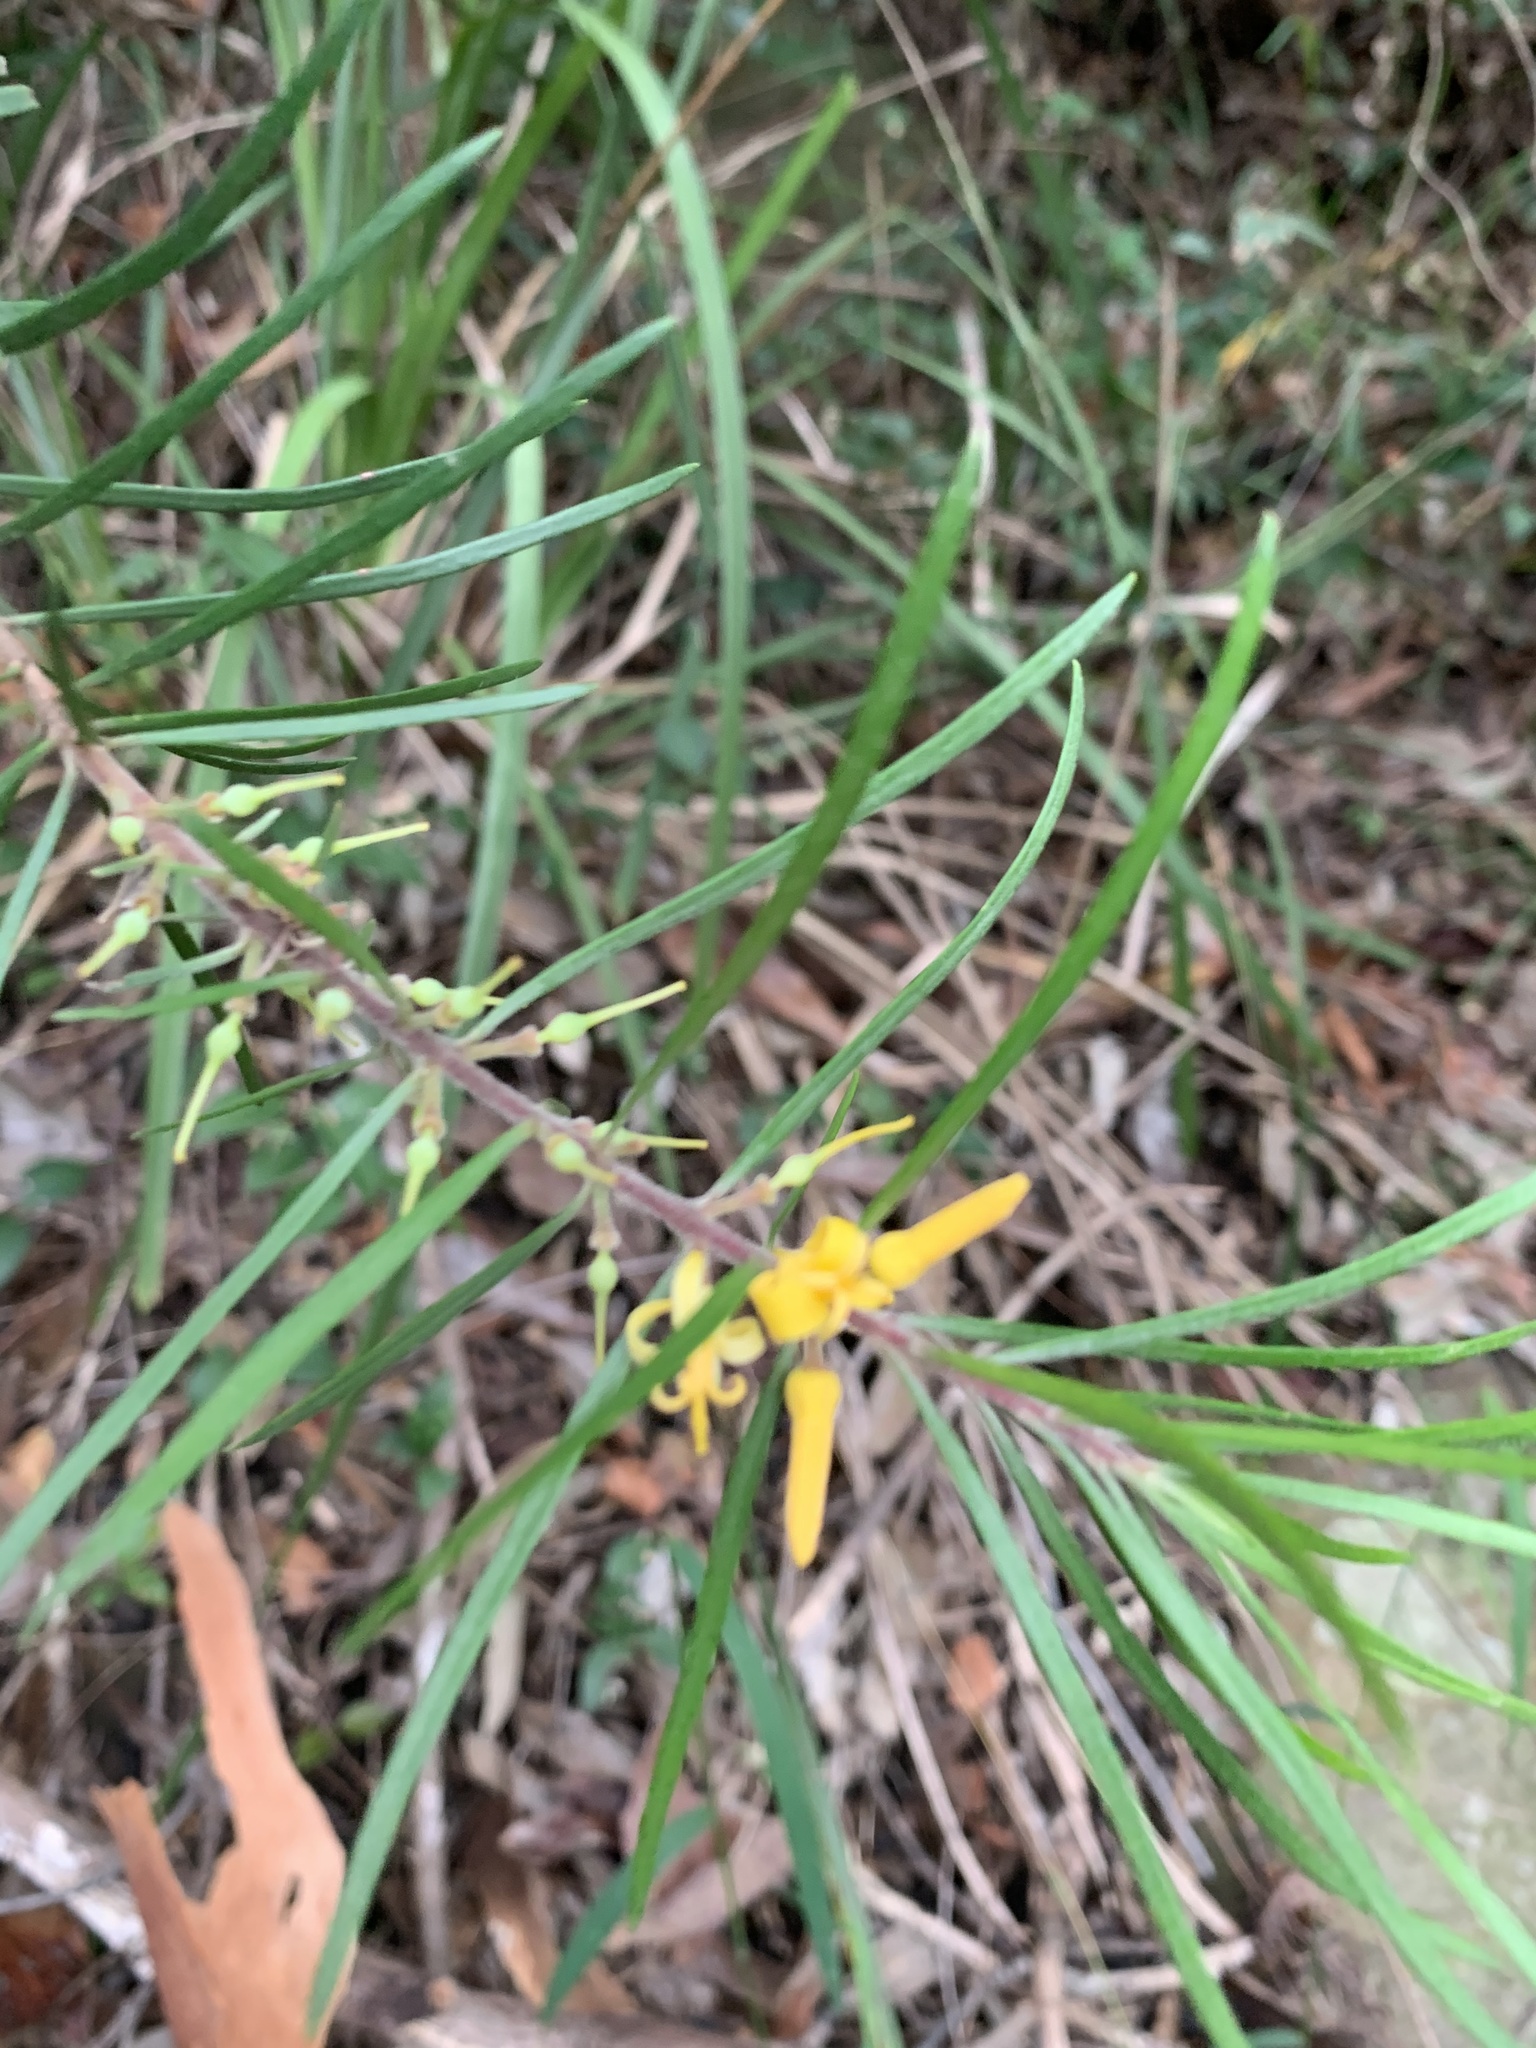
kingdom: Plantae
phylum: Tracheophyta
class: Magnoliopsida
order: Proteales
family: Proteaceae
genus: Persoonia
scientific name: Persoonia linearis
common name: Narrow-leaf geebung
